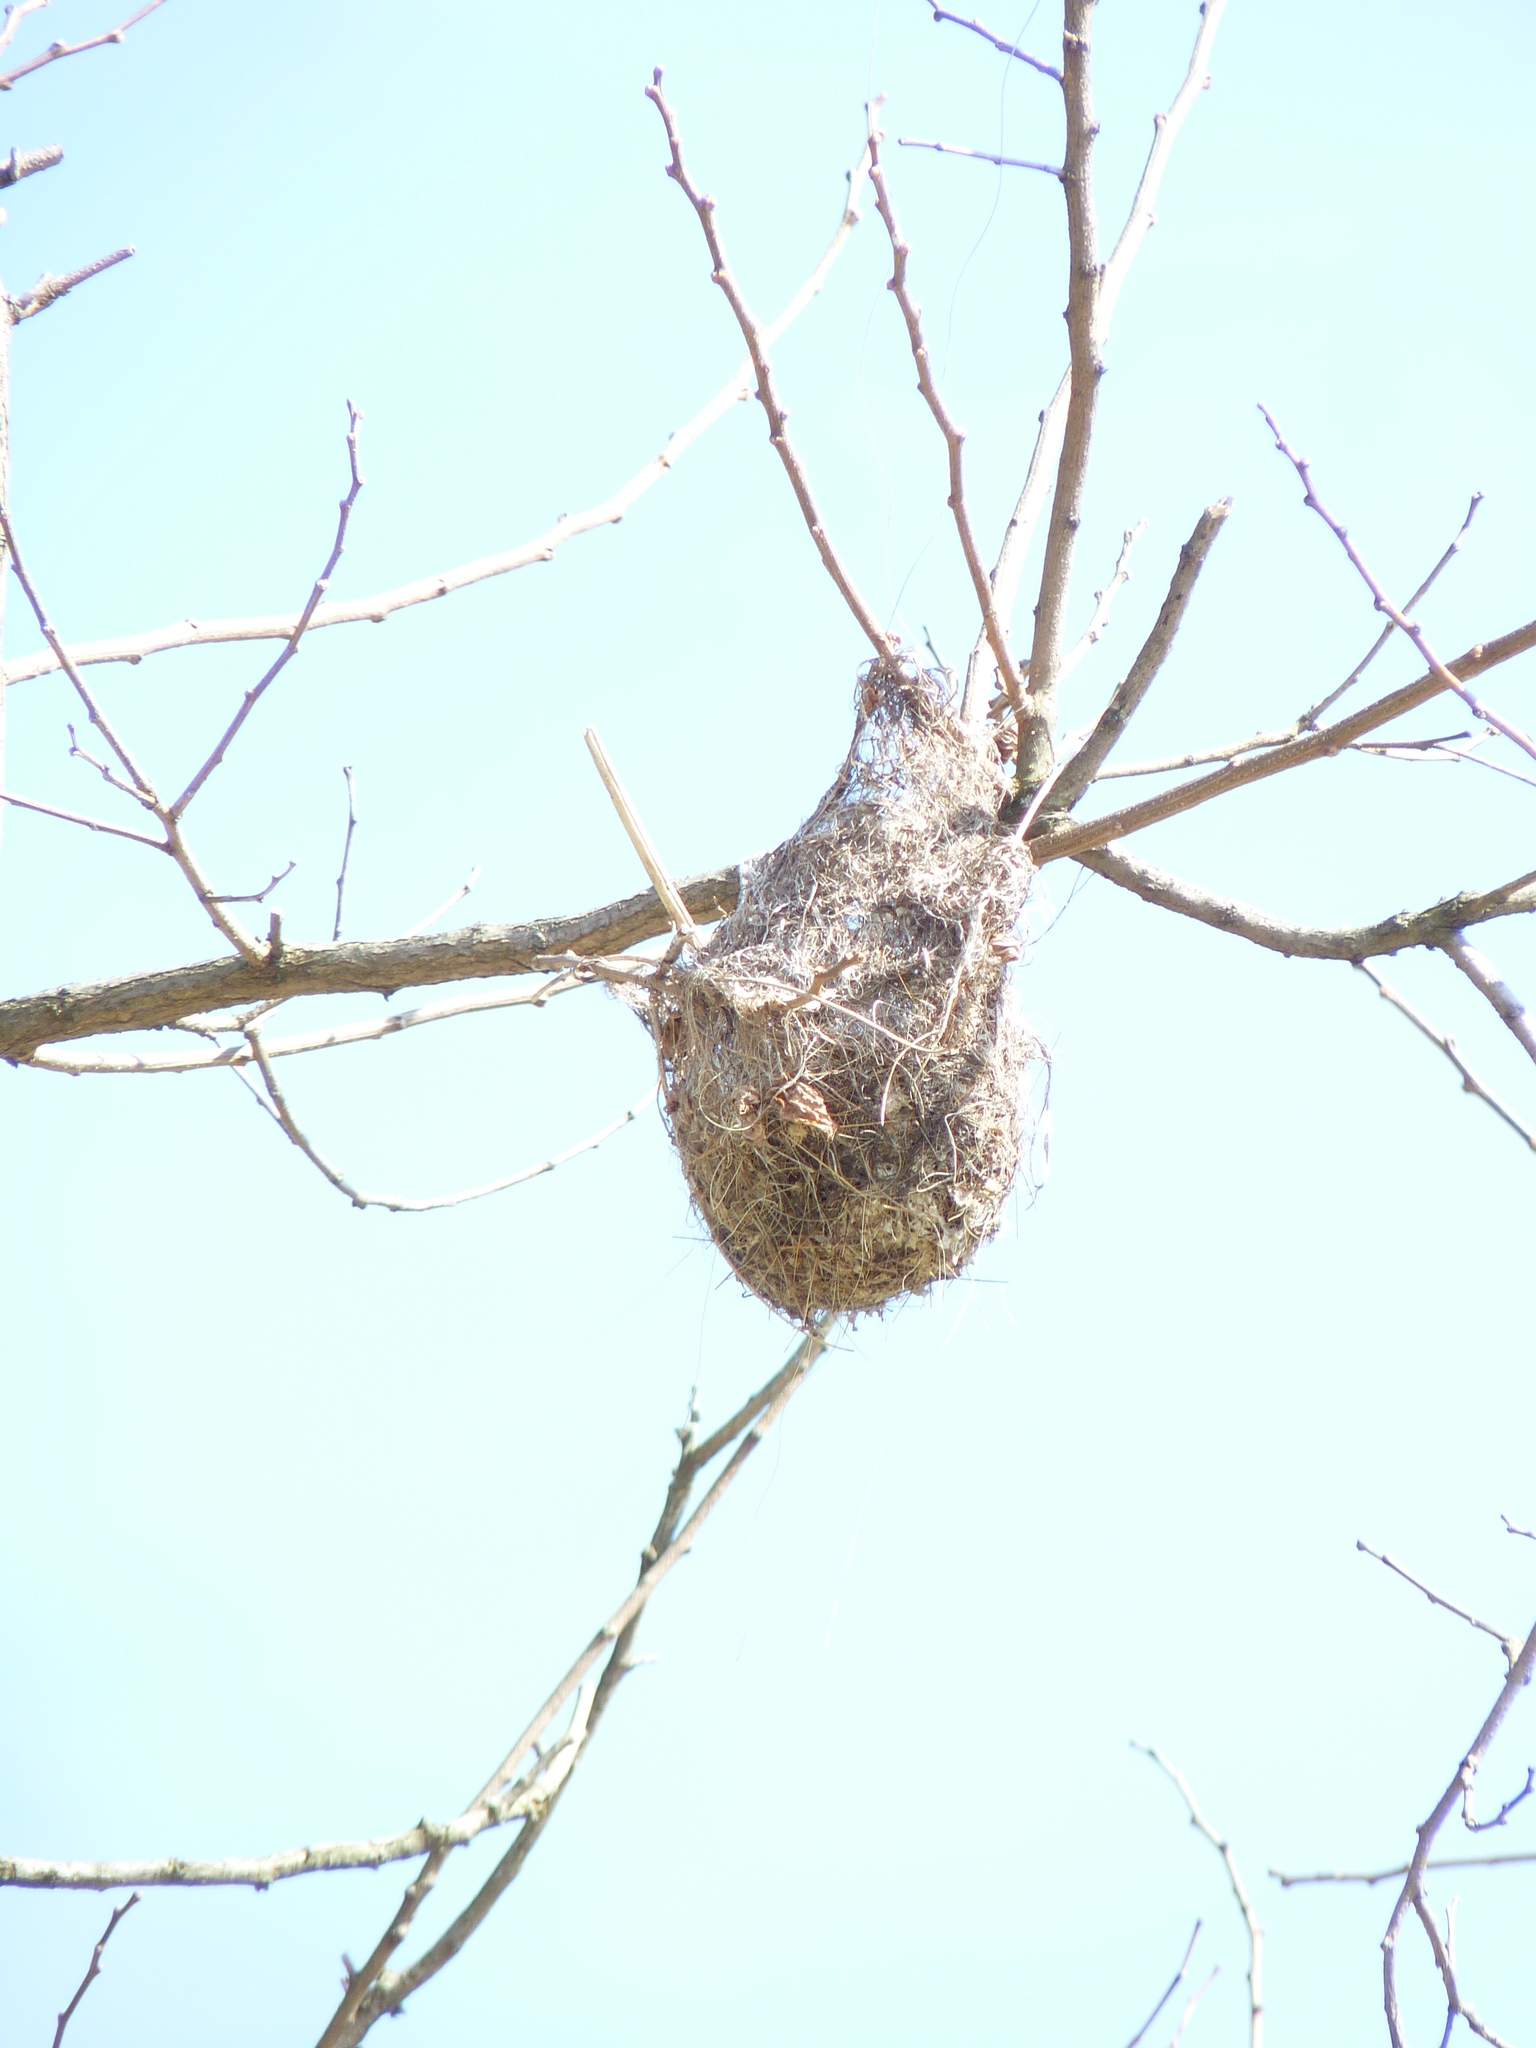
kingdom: Animalia
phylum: Chordata
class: Aves
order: Passeriformes
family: Icteridae
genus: Icterus
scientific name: Icterus galbula
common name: Baltimore oriole
